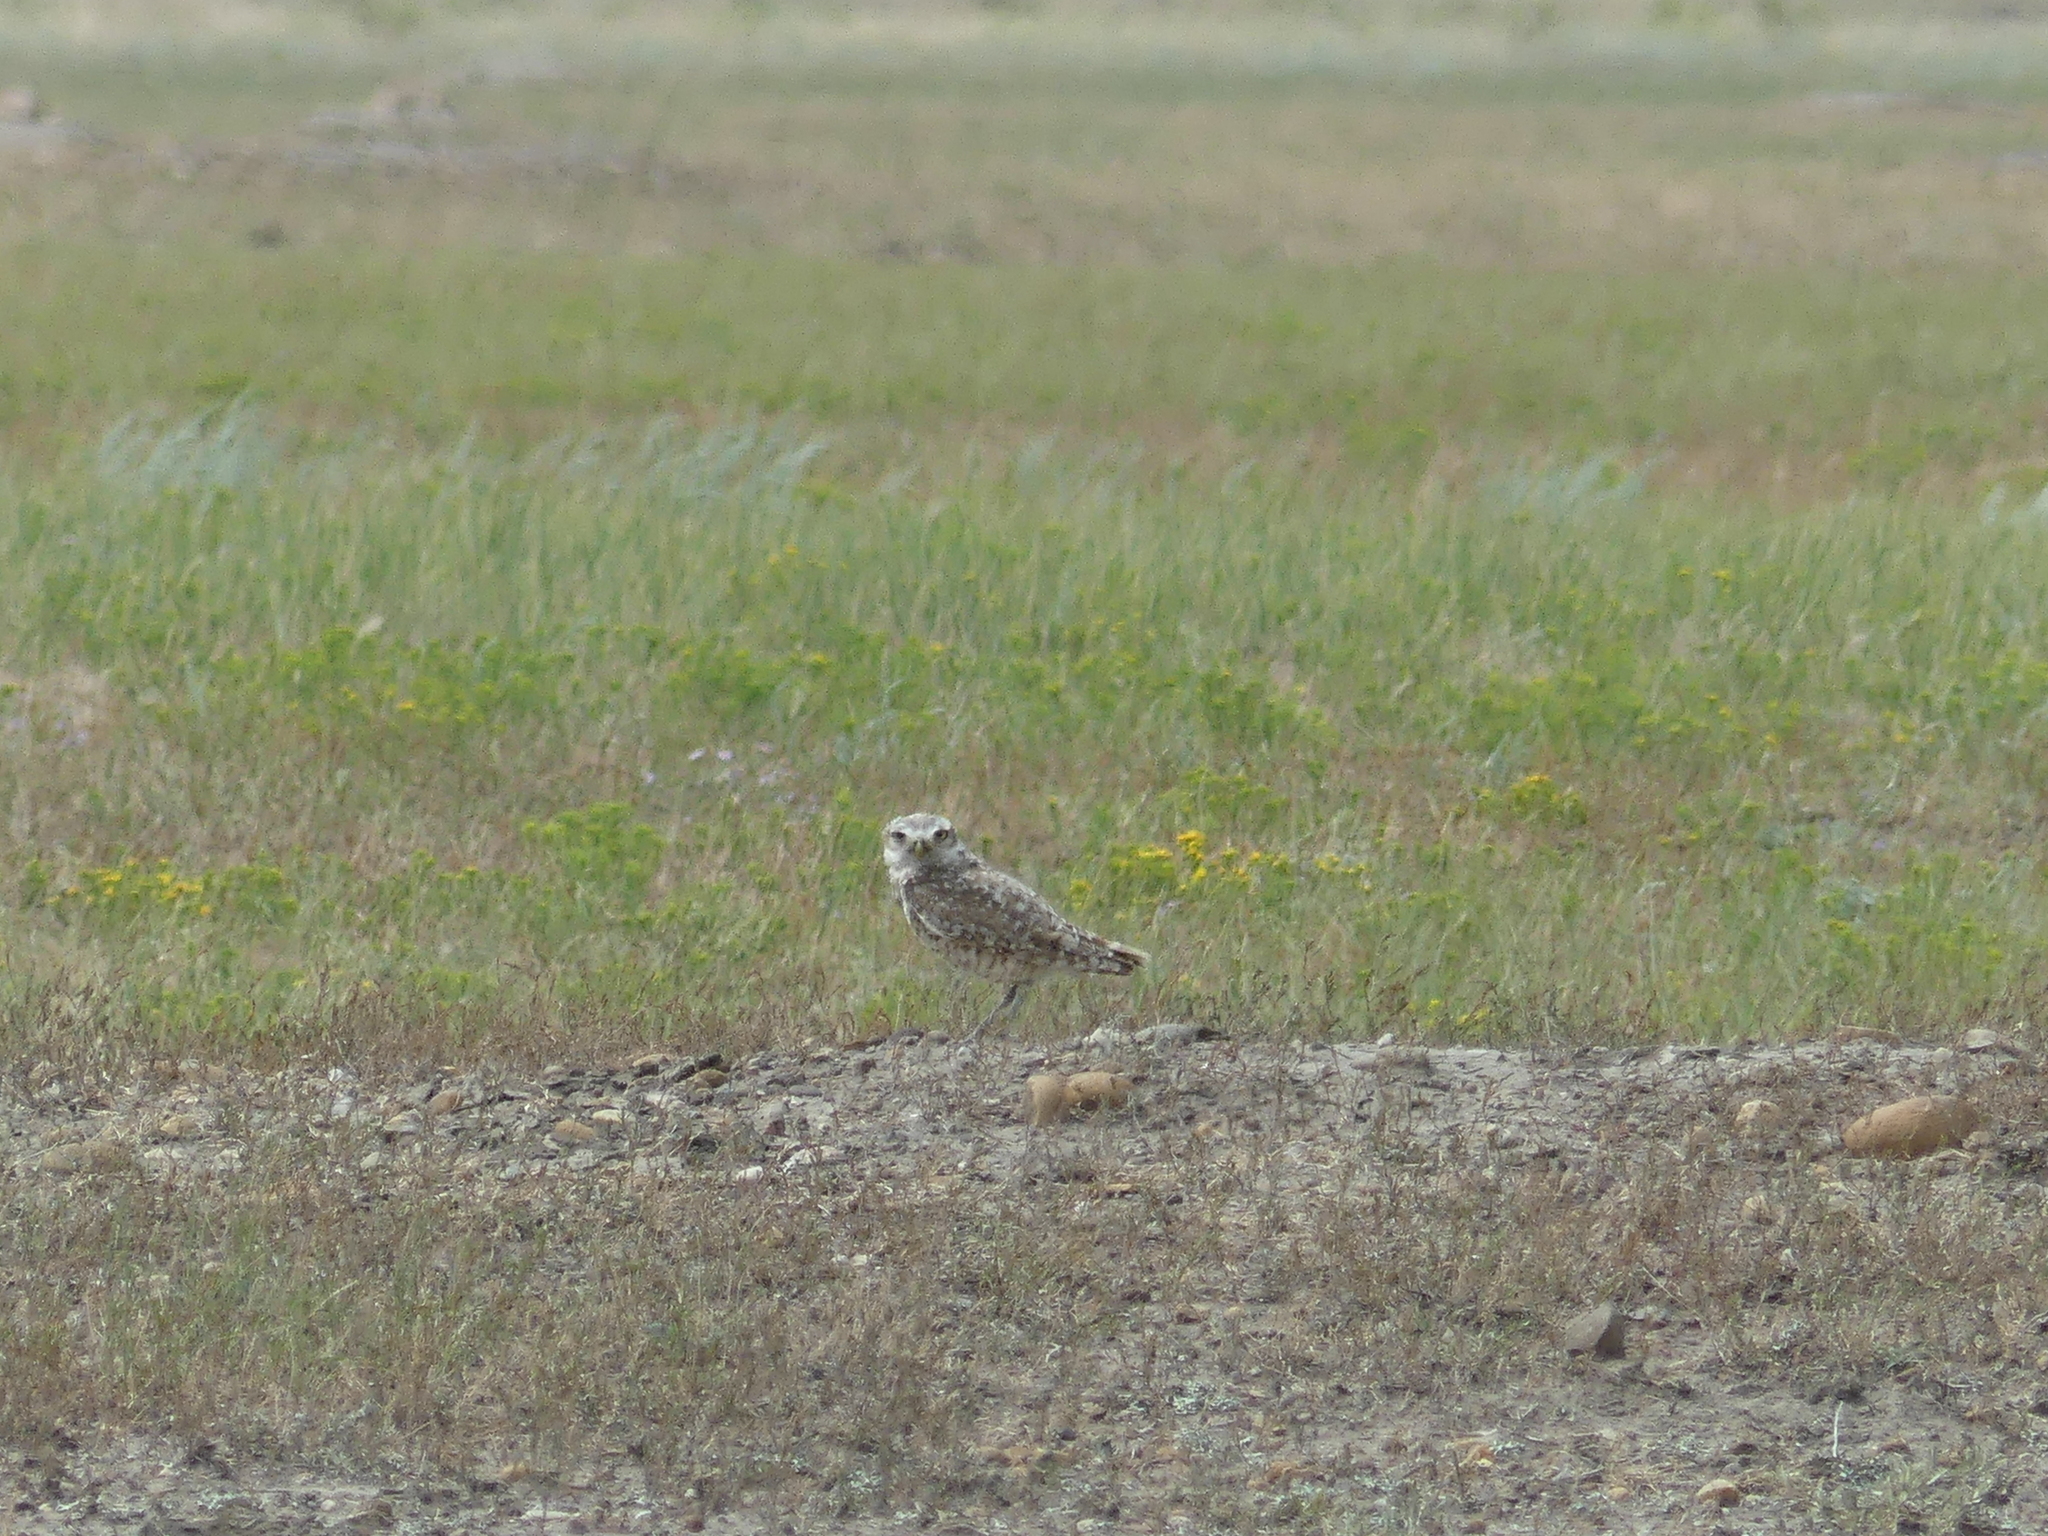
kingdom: Animalia
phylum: Chordata
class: Aves
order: Strigiformes
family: Strigidae
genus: Athene
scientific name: Athene cunicularia
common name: Burrowing owl
